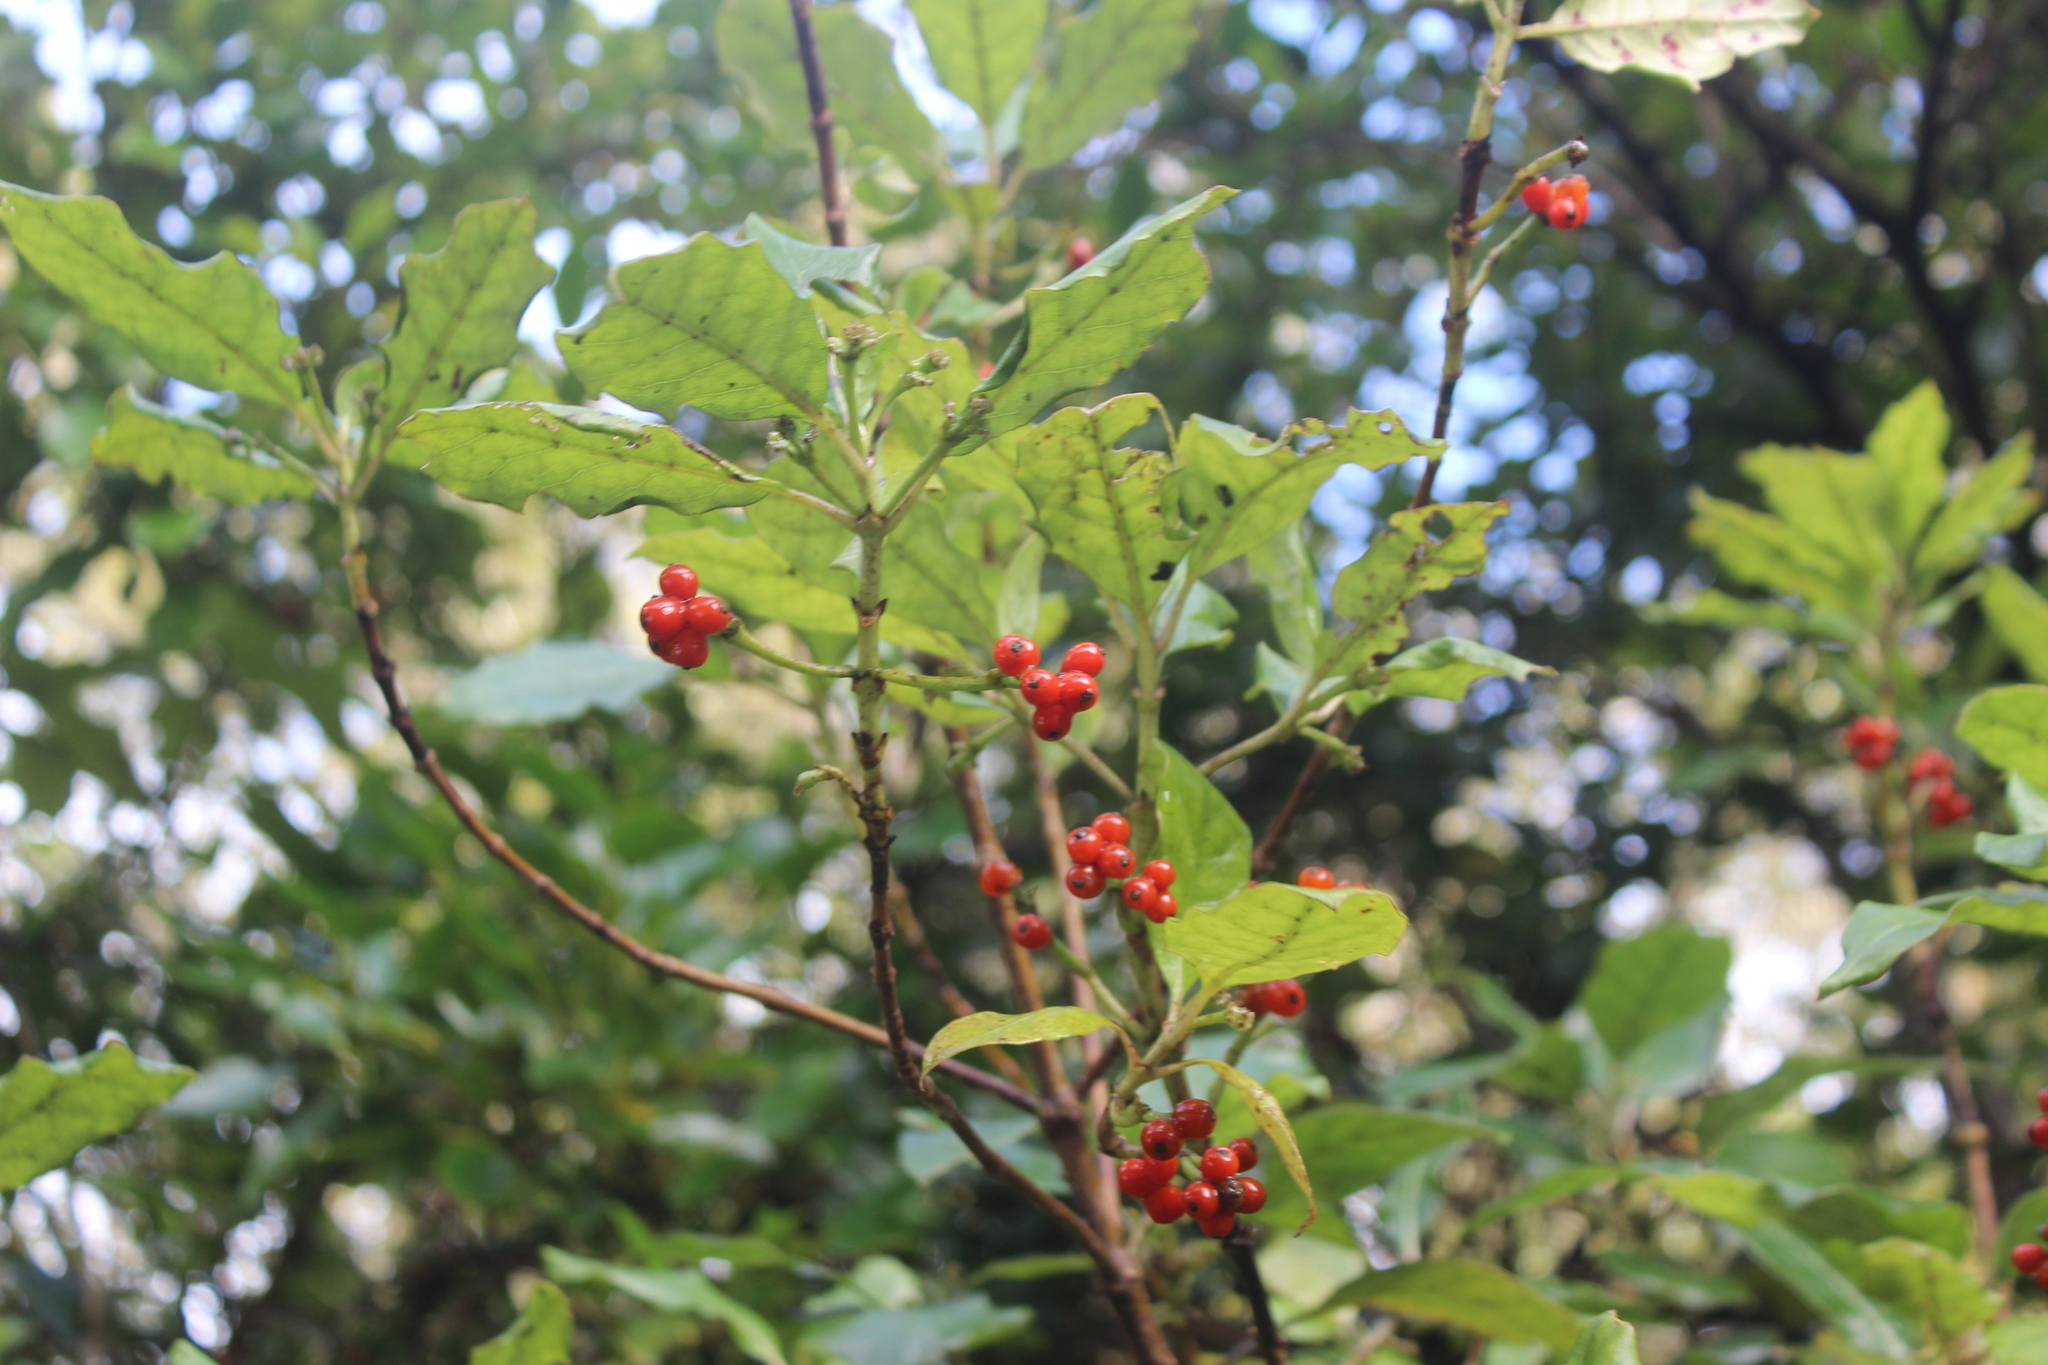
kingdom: Plantae
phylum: Tracheophyta
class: Magnoliopsida
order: Gentianales
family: Rubiaceae
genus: Coprosma
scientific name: Coprosma autumnalis
